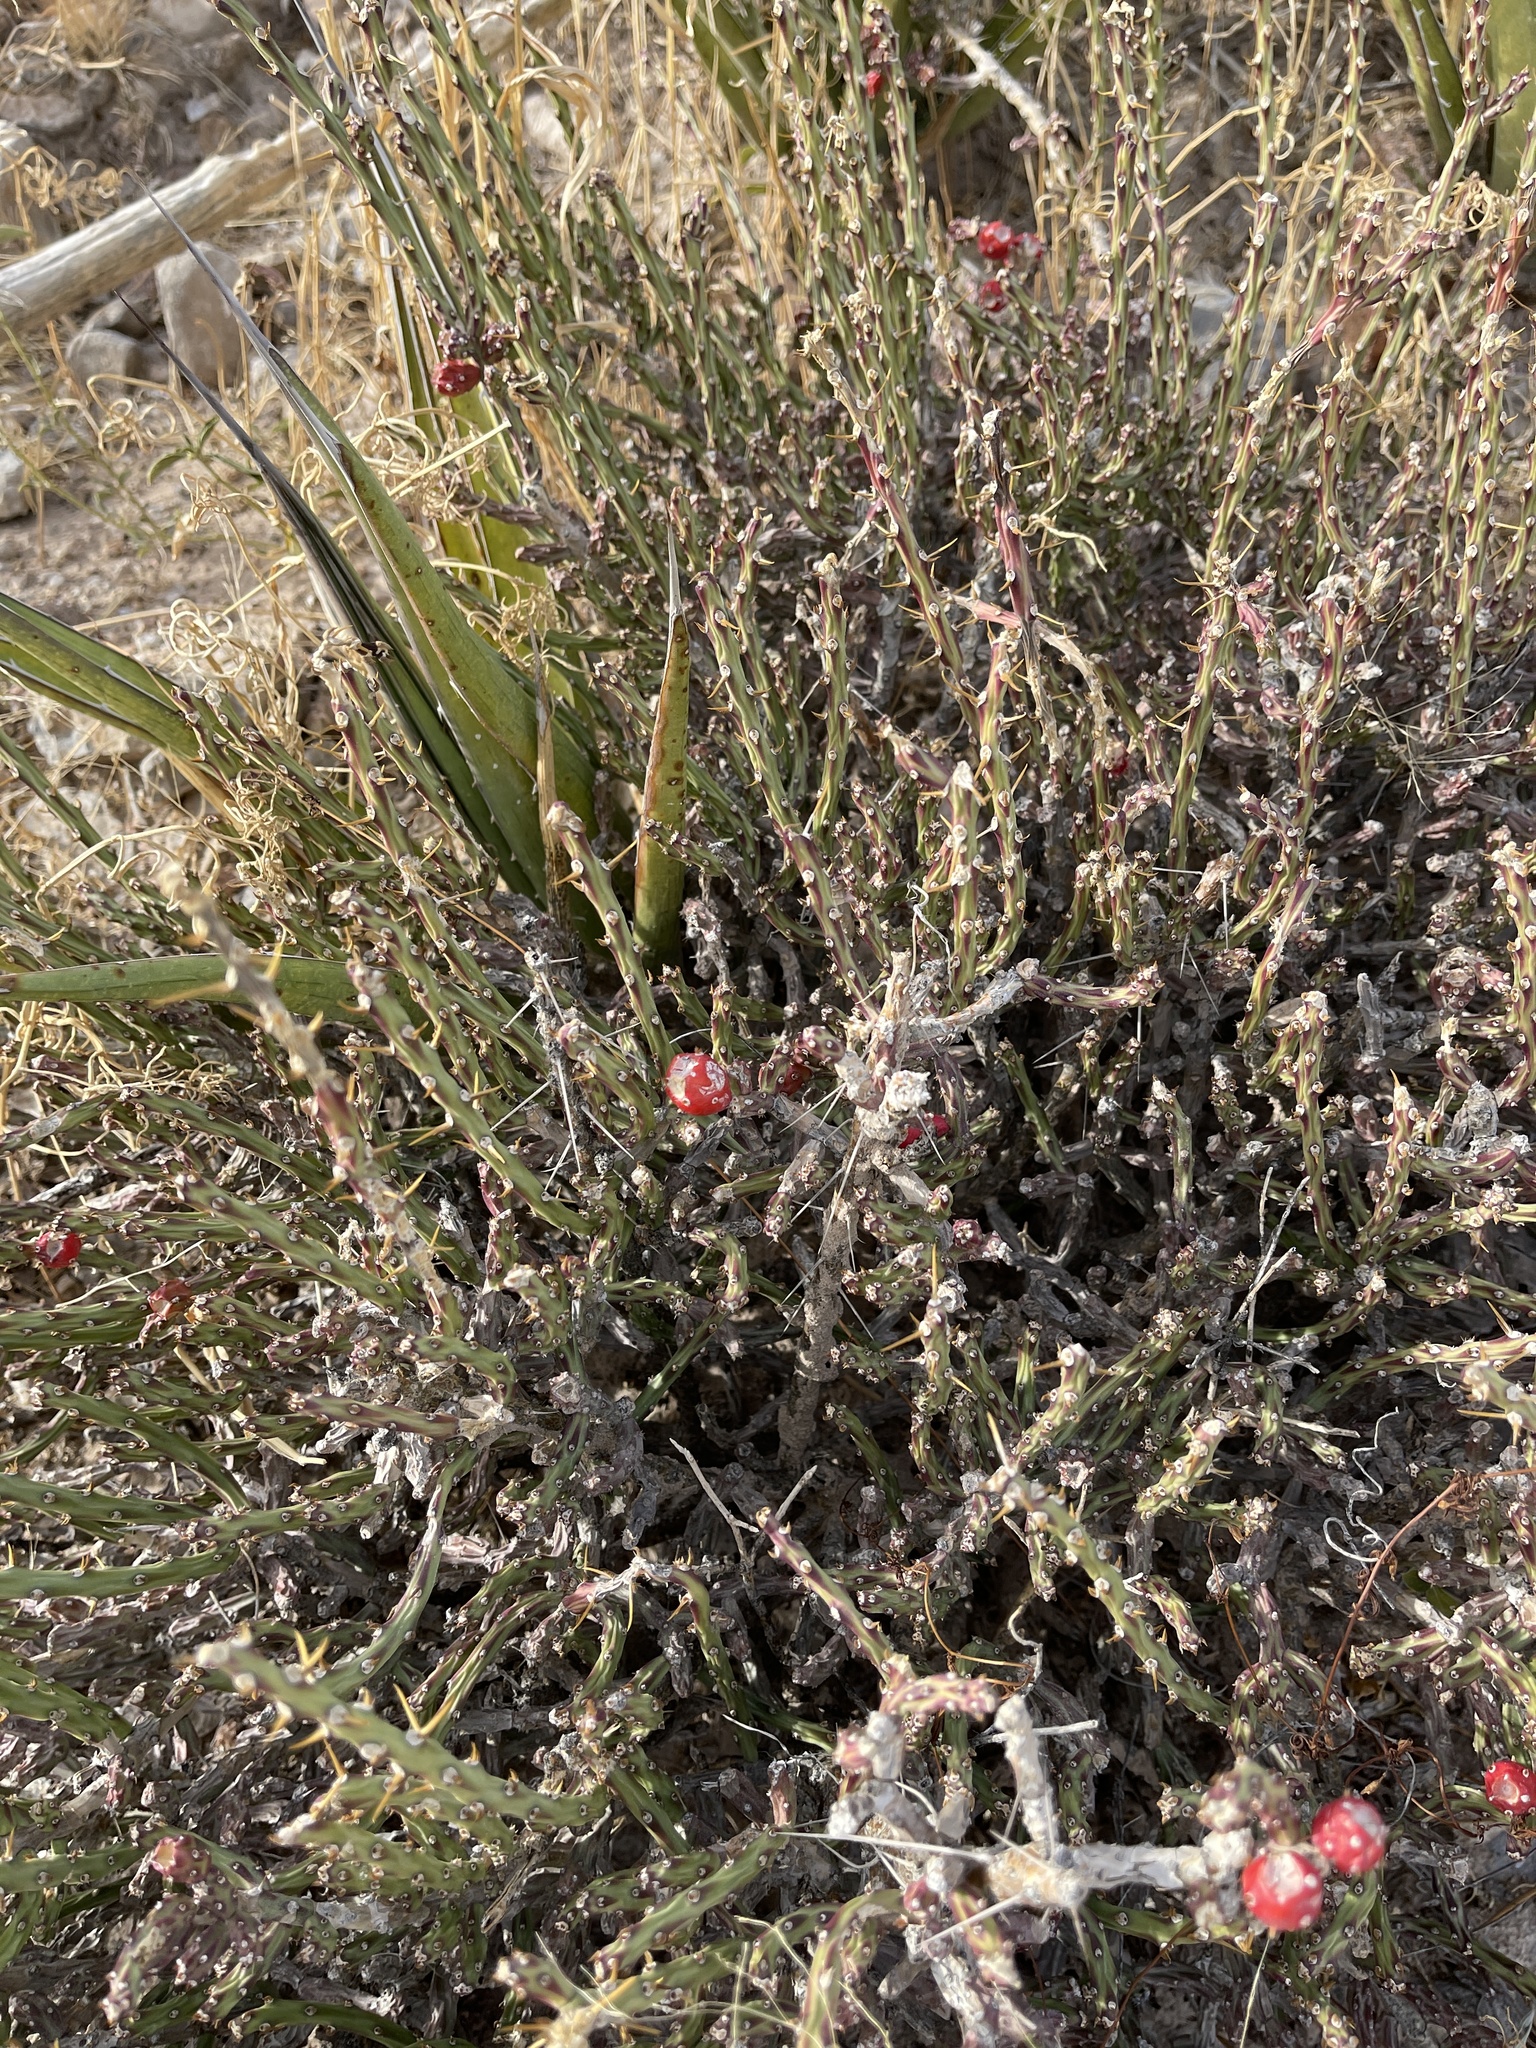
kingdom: Plantae
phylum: Tracheophyta
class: Magnoliopsida
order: Caryophyllales
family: Cactaceae
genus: Cylindropuntia
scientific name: Cylindropuntia leptocaulis
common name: Christmas cactus
